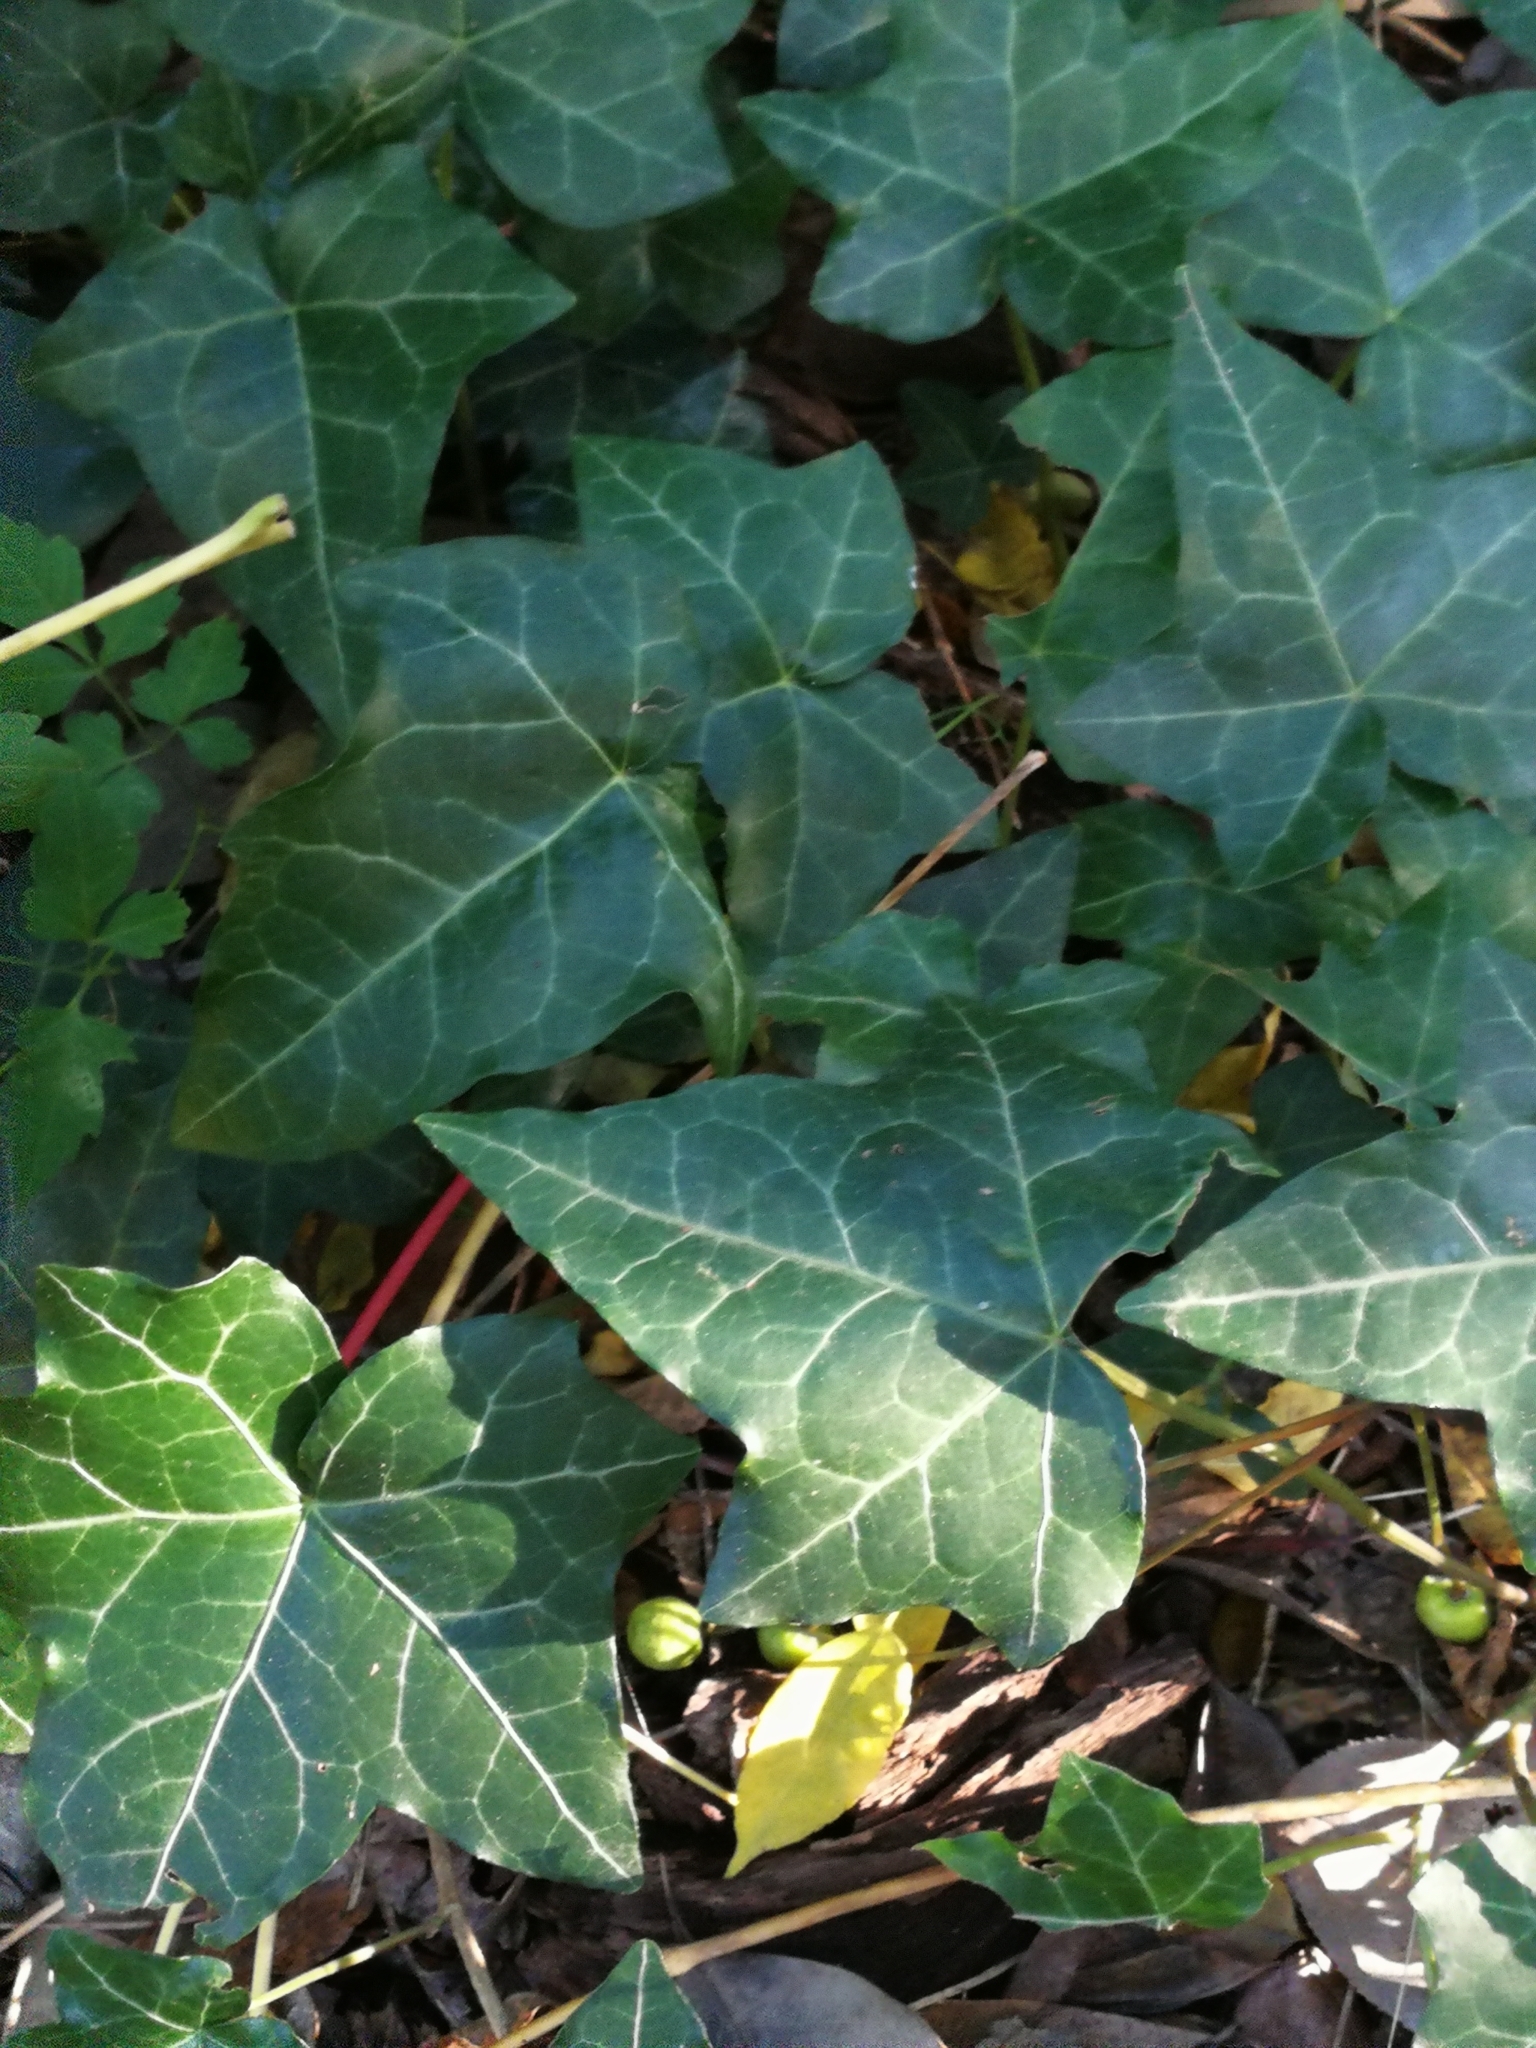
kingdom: Plantae
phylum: Tracheophyta
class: Magnoliopsida
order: Apiales
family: Araliaceae
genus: Hedera
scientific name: Hedera helix
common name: Ivy
